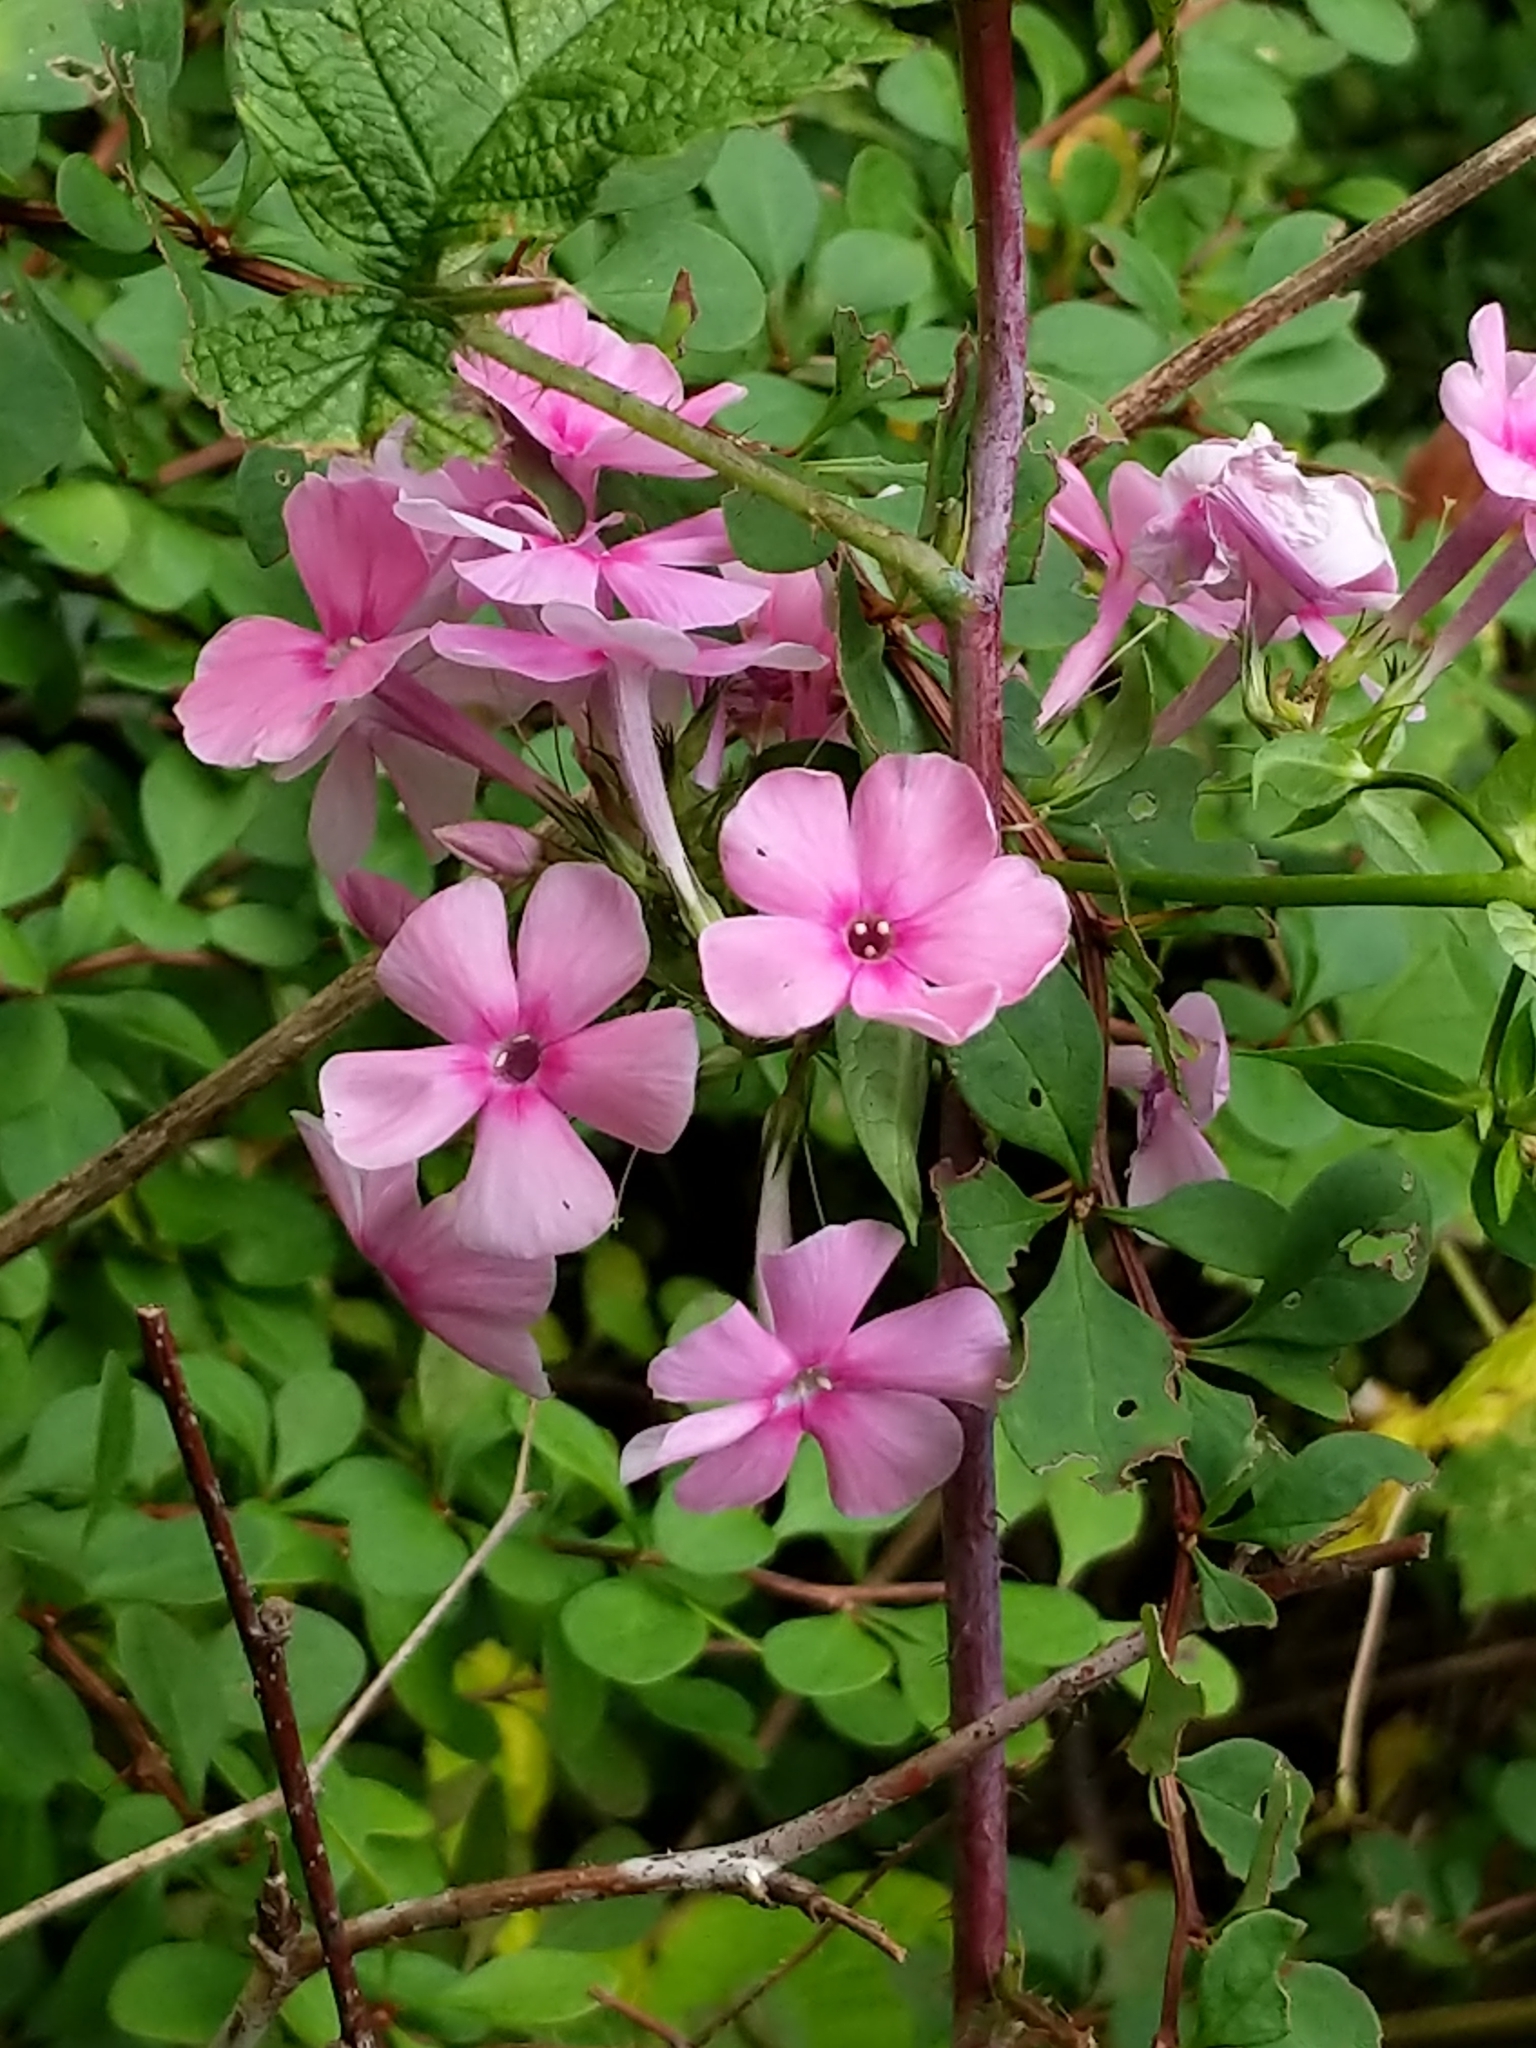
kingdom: Plantae
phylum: Tracheophyta
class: Magnoliopsida
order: Ericales
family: Polemoniaceae
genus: Phlox
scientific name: Phlox paniculata
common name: Fall phlox
